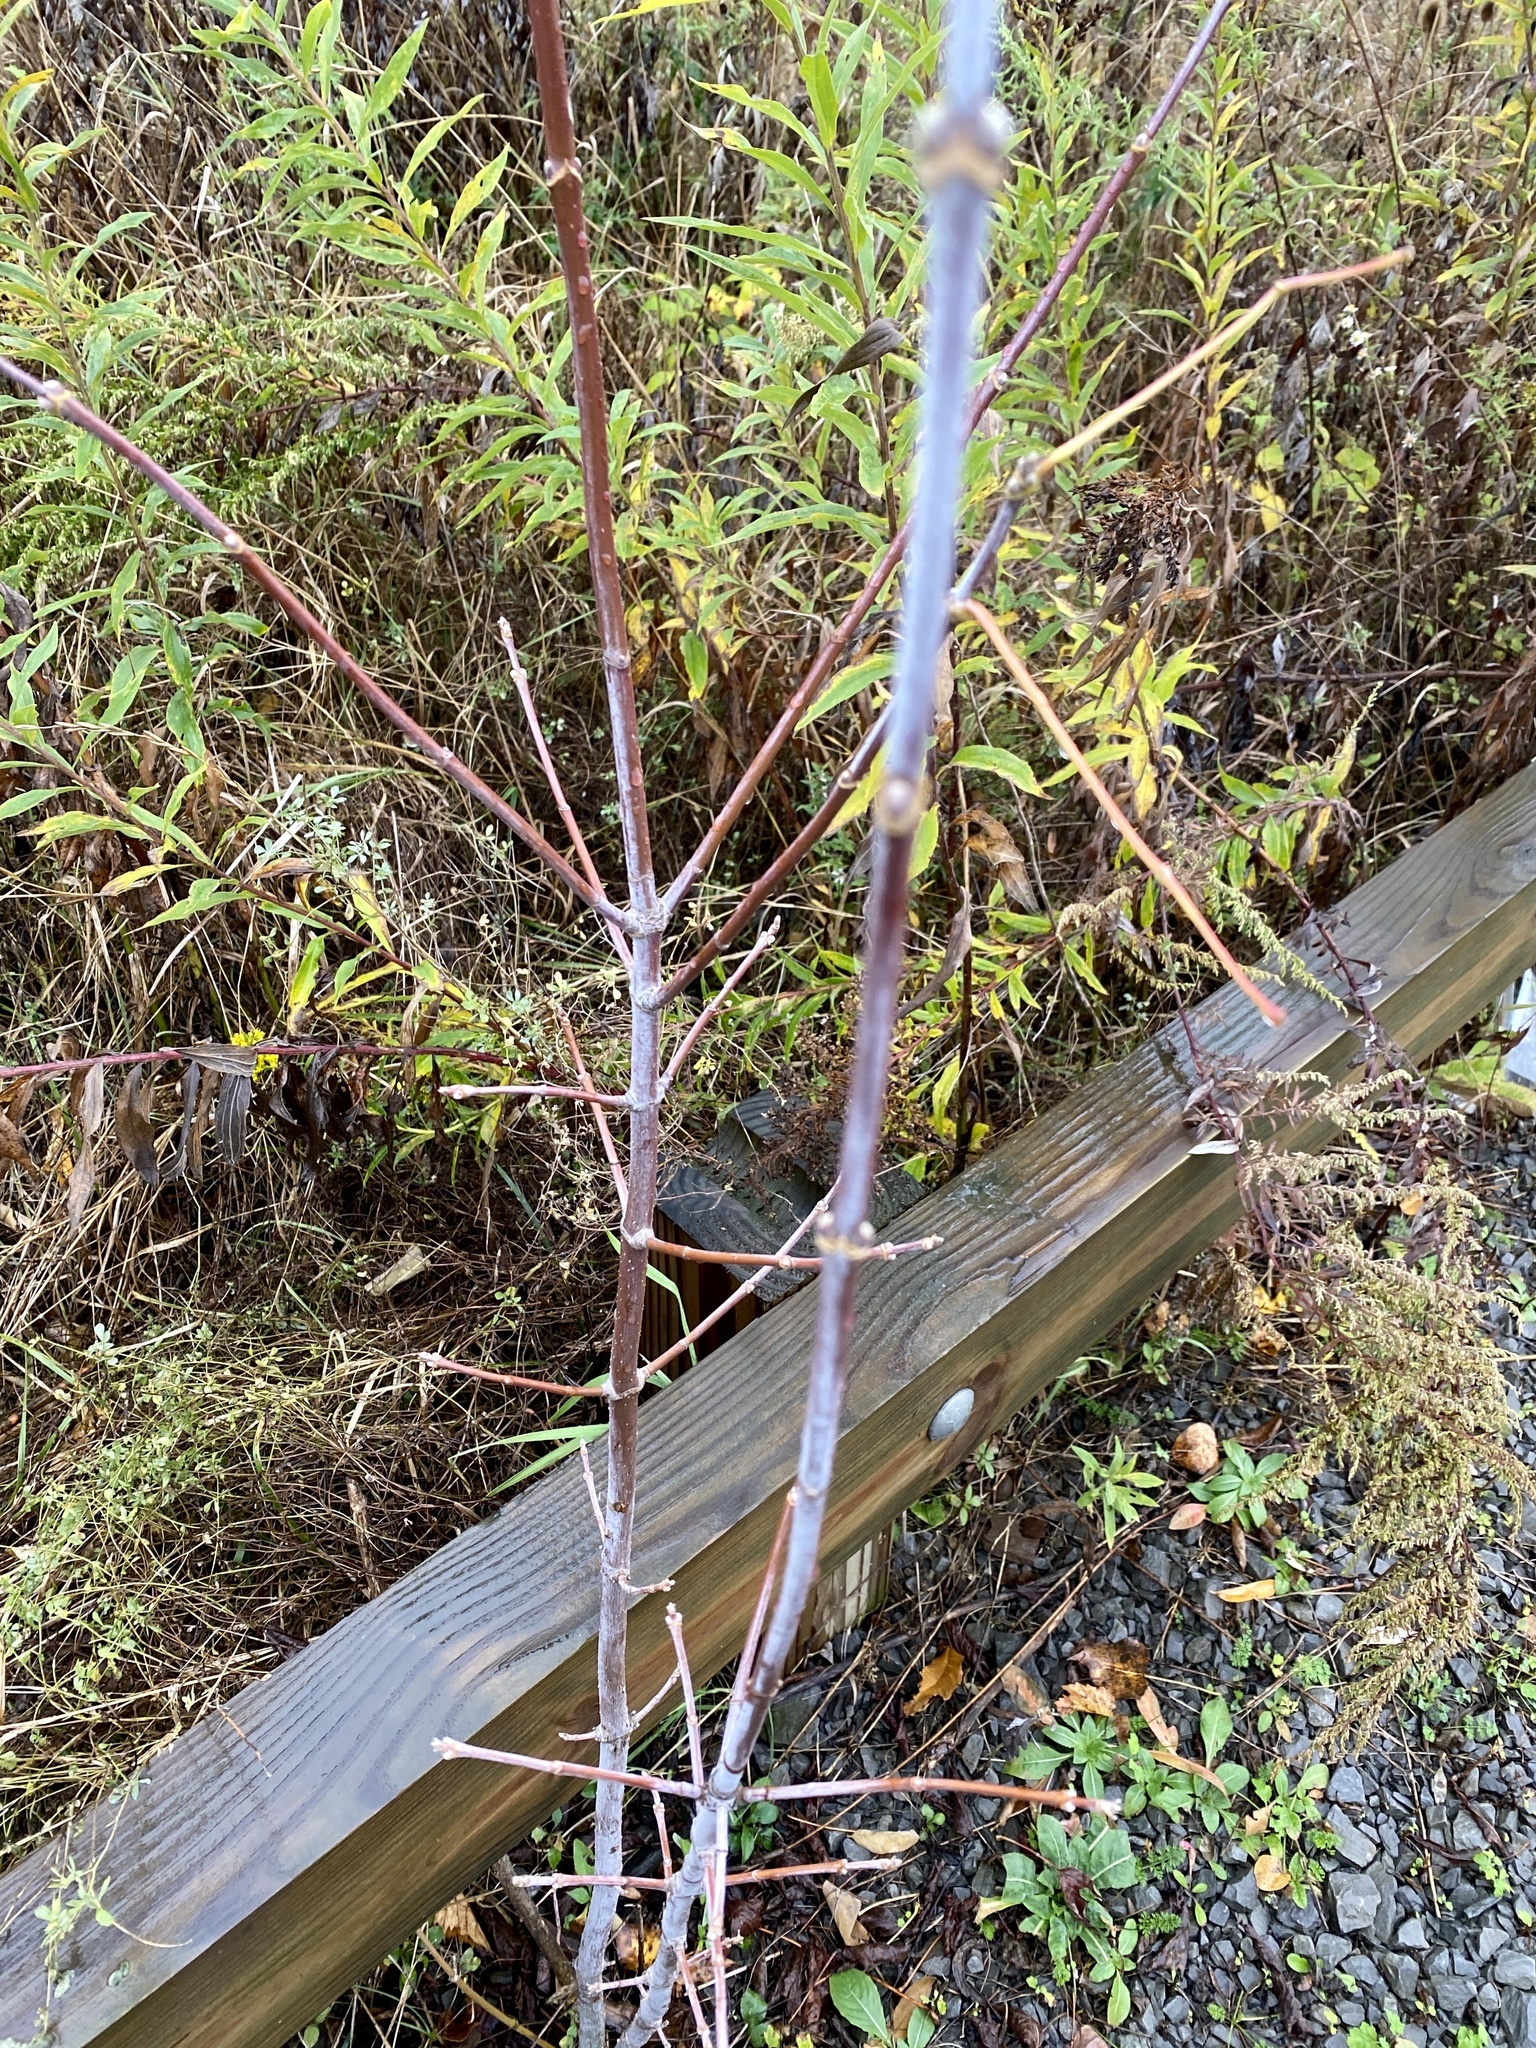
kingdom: Plantae
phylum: Tracheophyta
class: Magnoliopsida
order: Sapindales
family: Sapindaceae
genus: Acer
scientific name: Acer negundo
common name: Ashleaf maple
